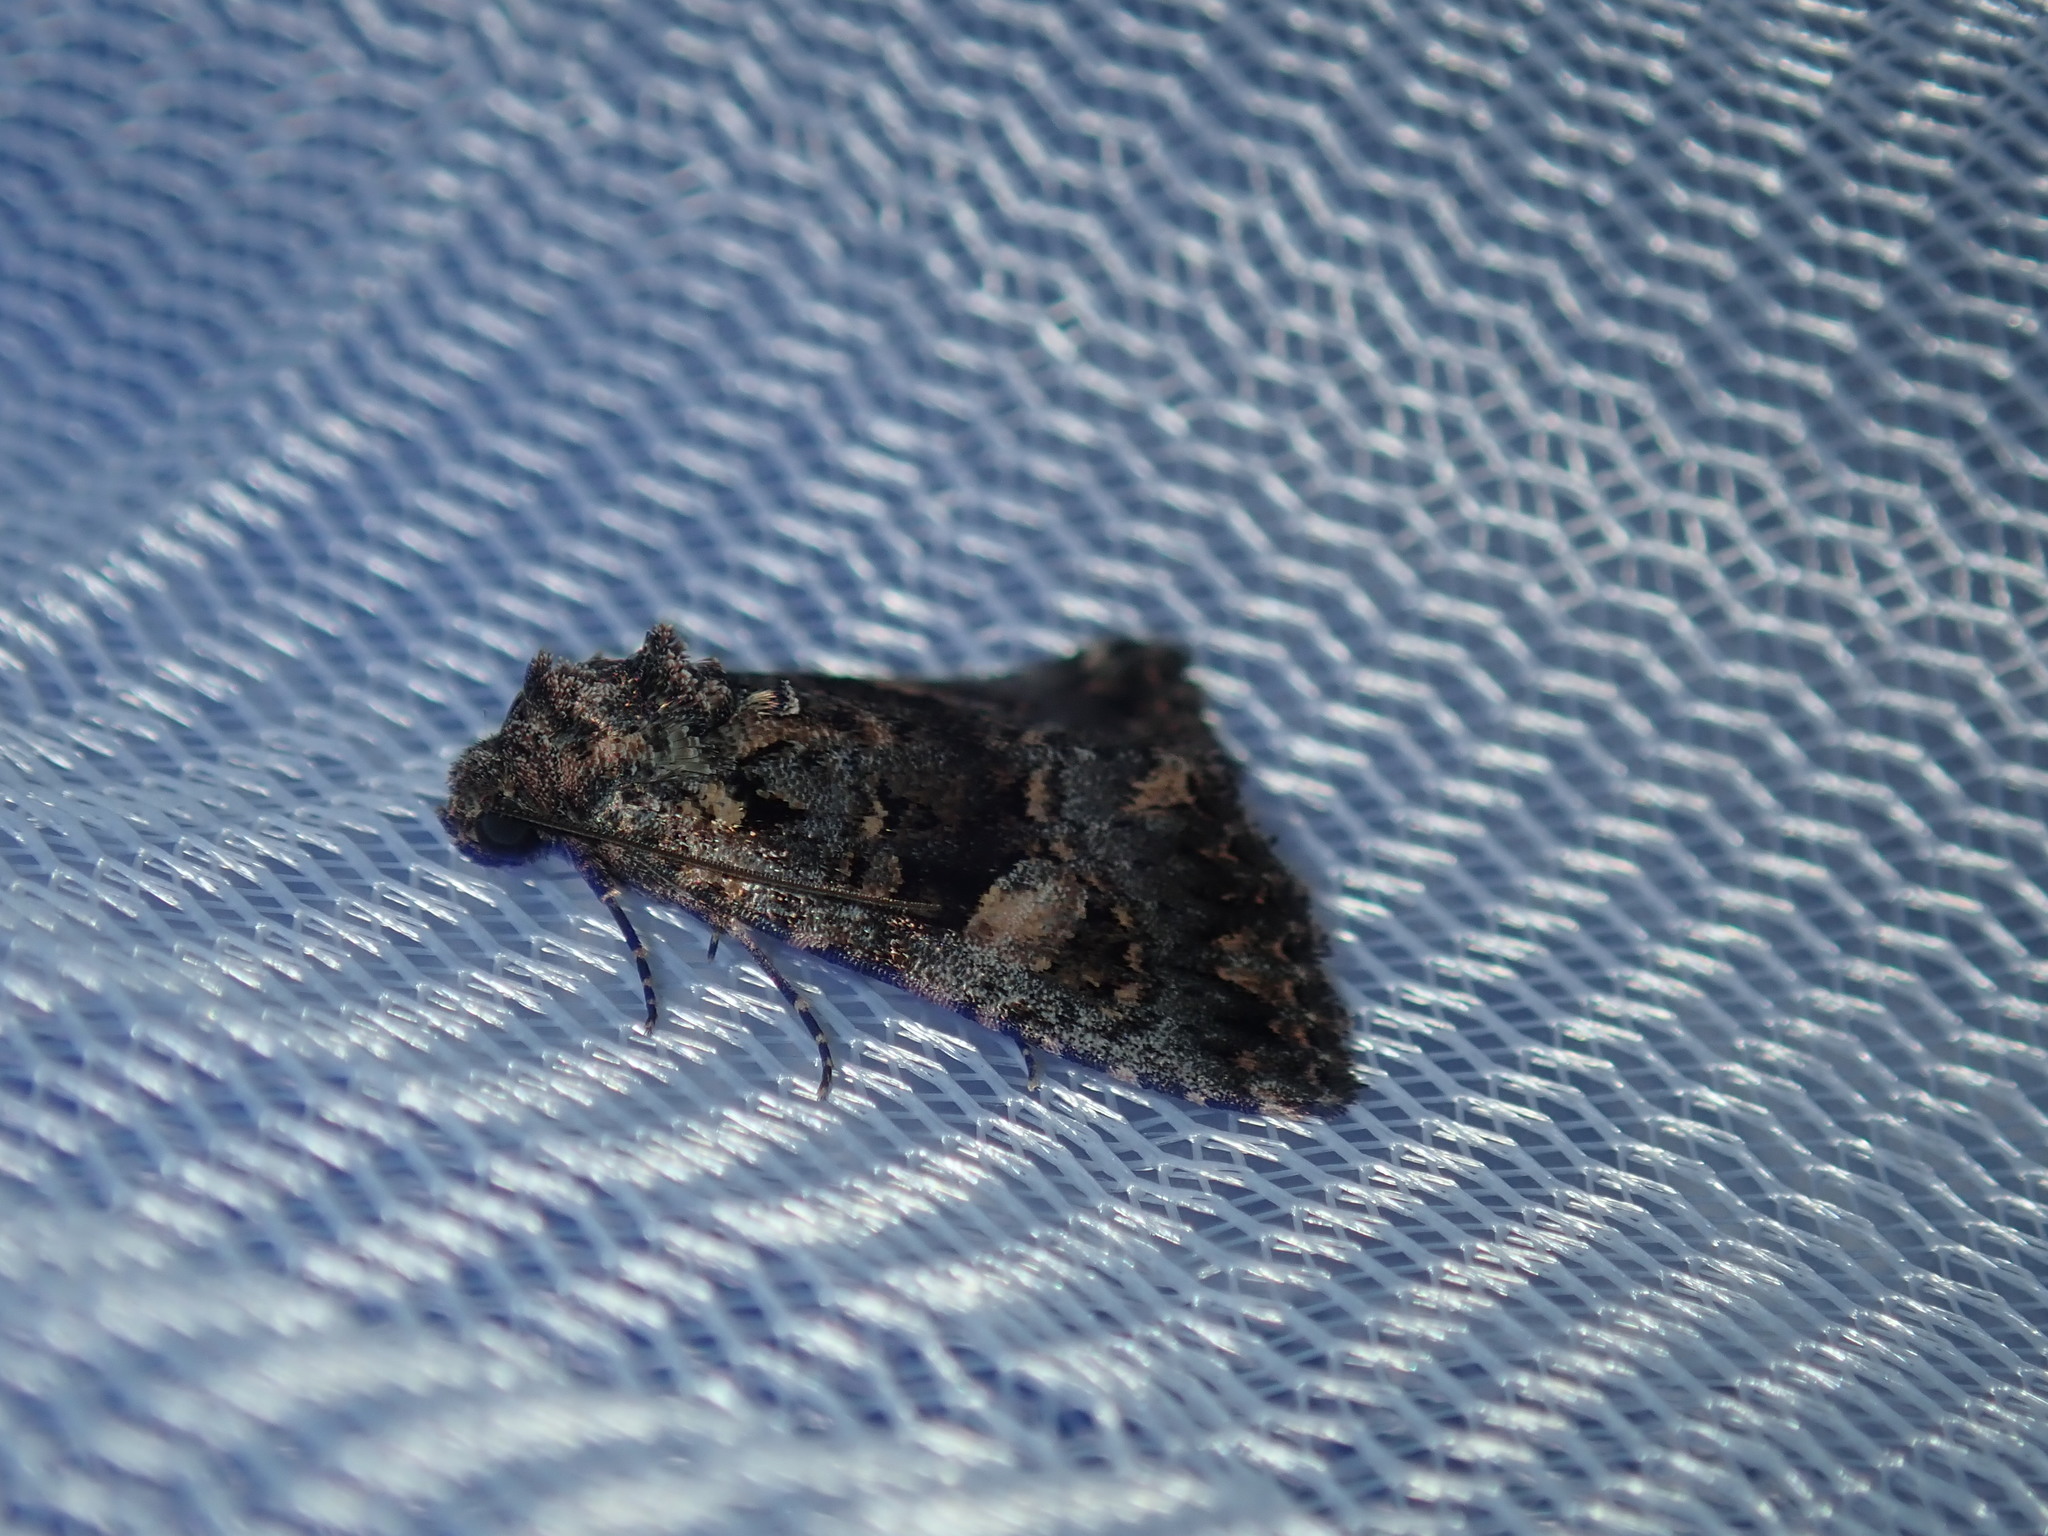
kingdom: Animalia
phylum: Arthropoda
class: Insecta
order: Lepidoptera
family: Noctuidae
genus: Condica
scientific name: Condica
